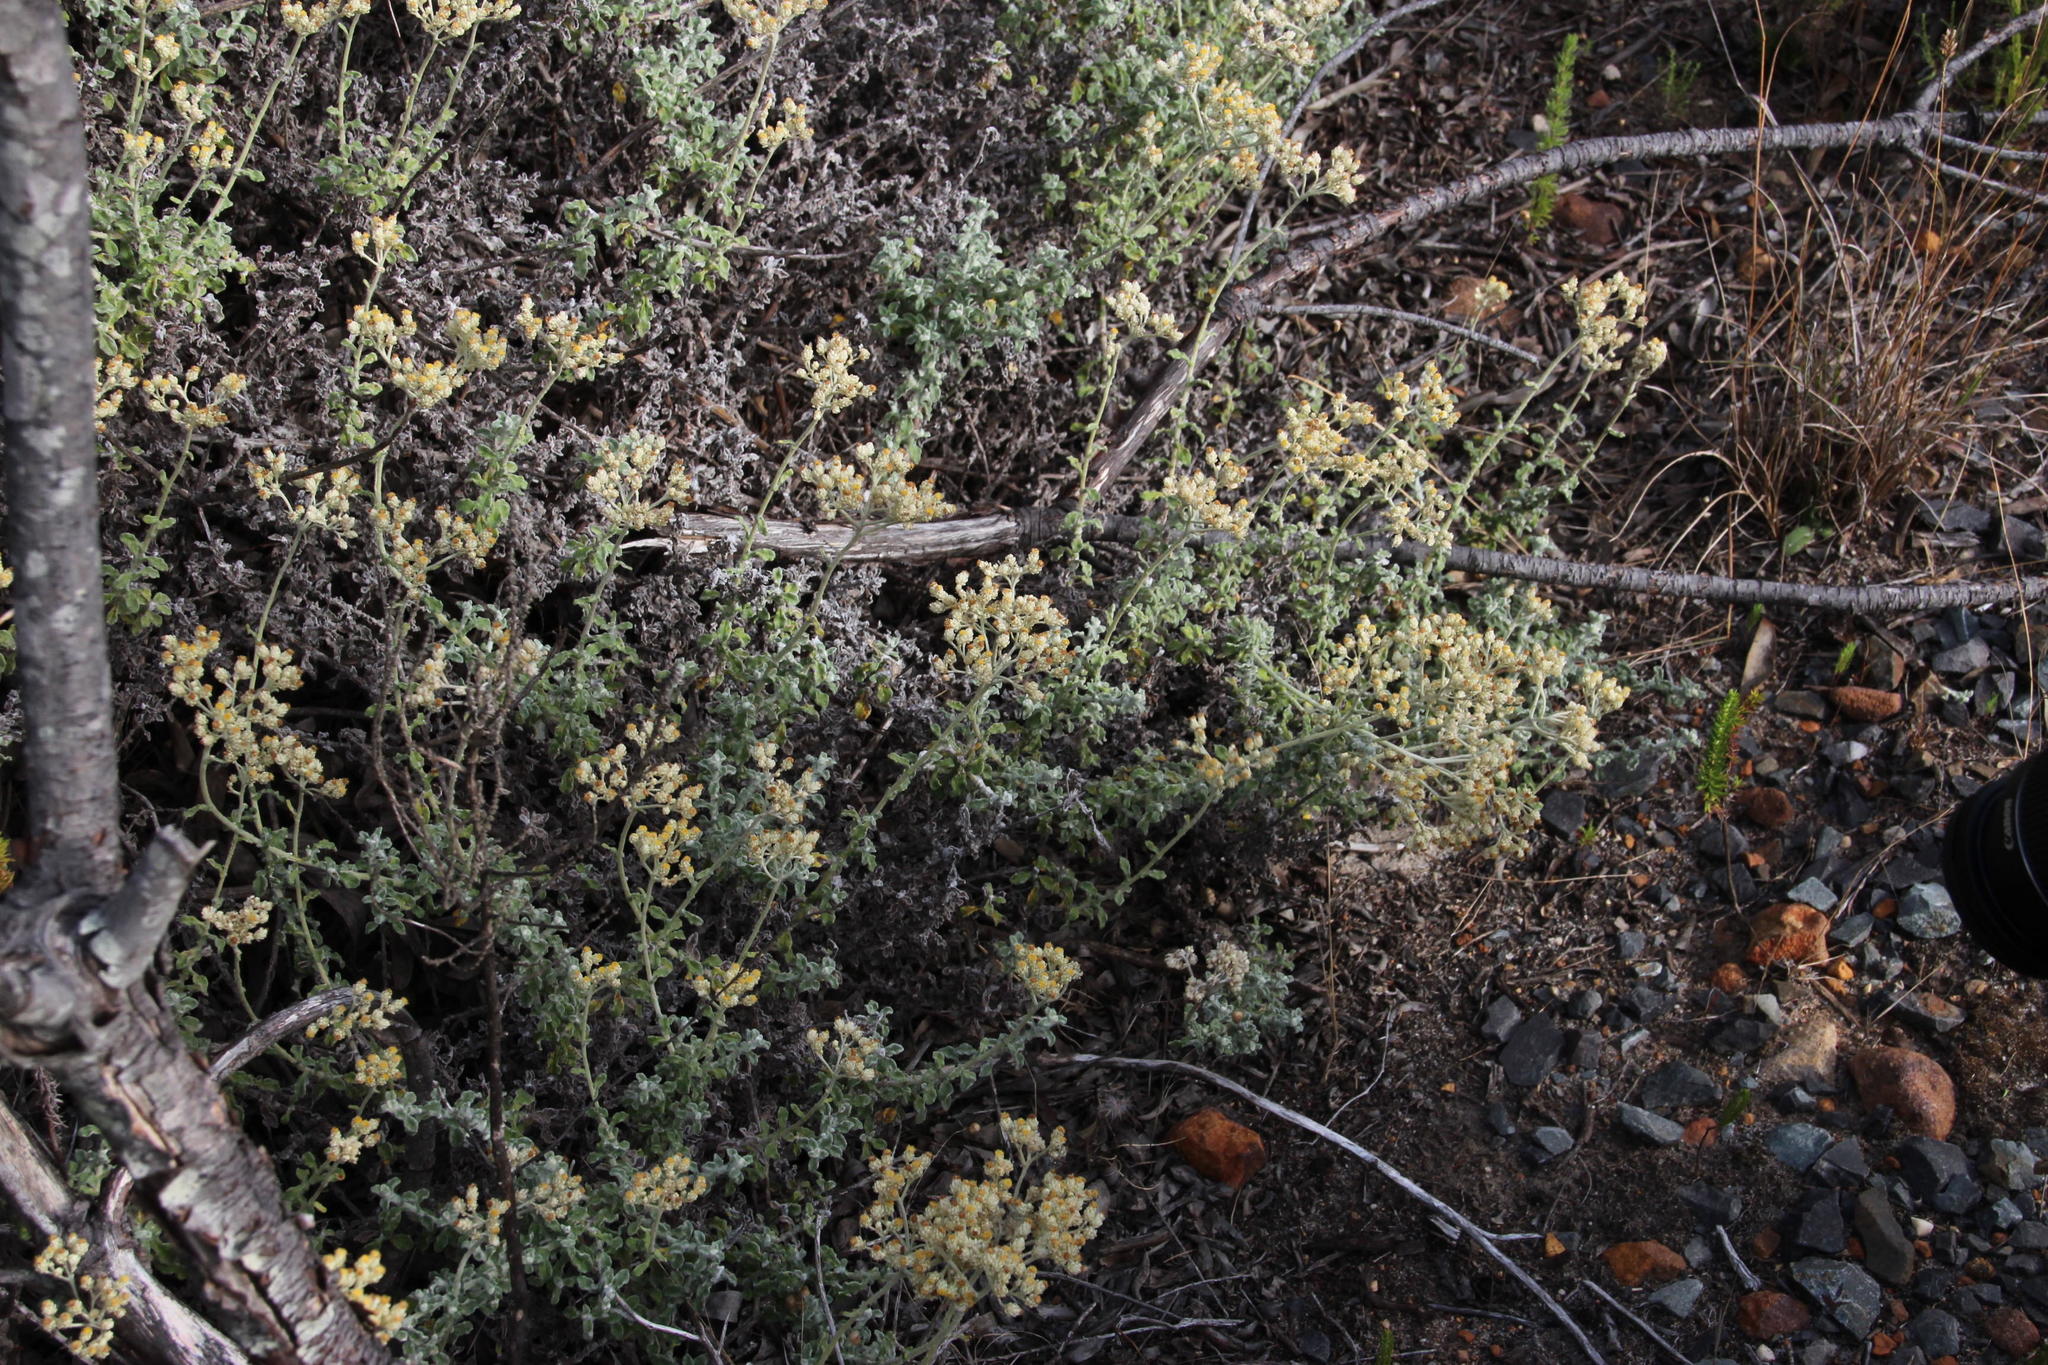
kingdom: Plantae
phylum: Tracheophyta
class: Magnoliopsida
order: Asterales
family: Asteraceae
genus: Helichrysum
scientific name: Helichrysum patulum
